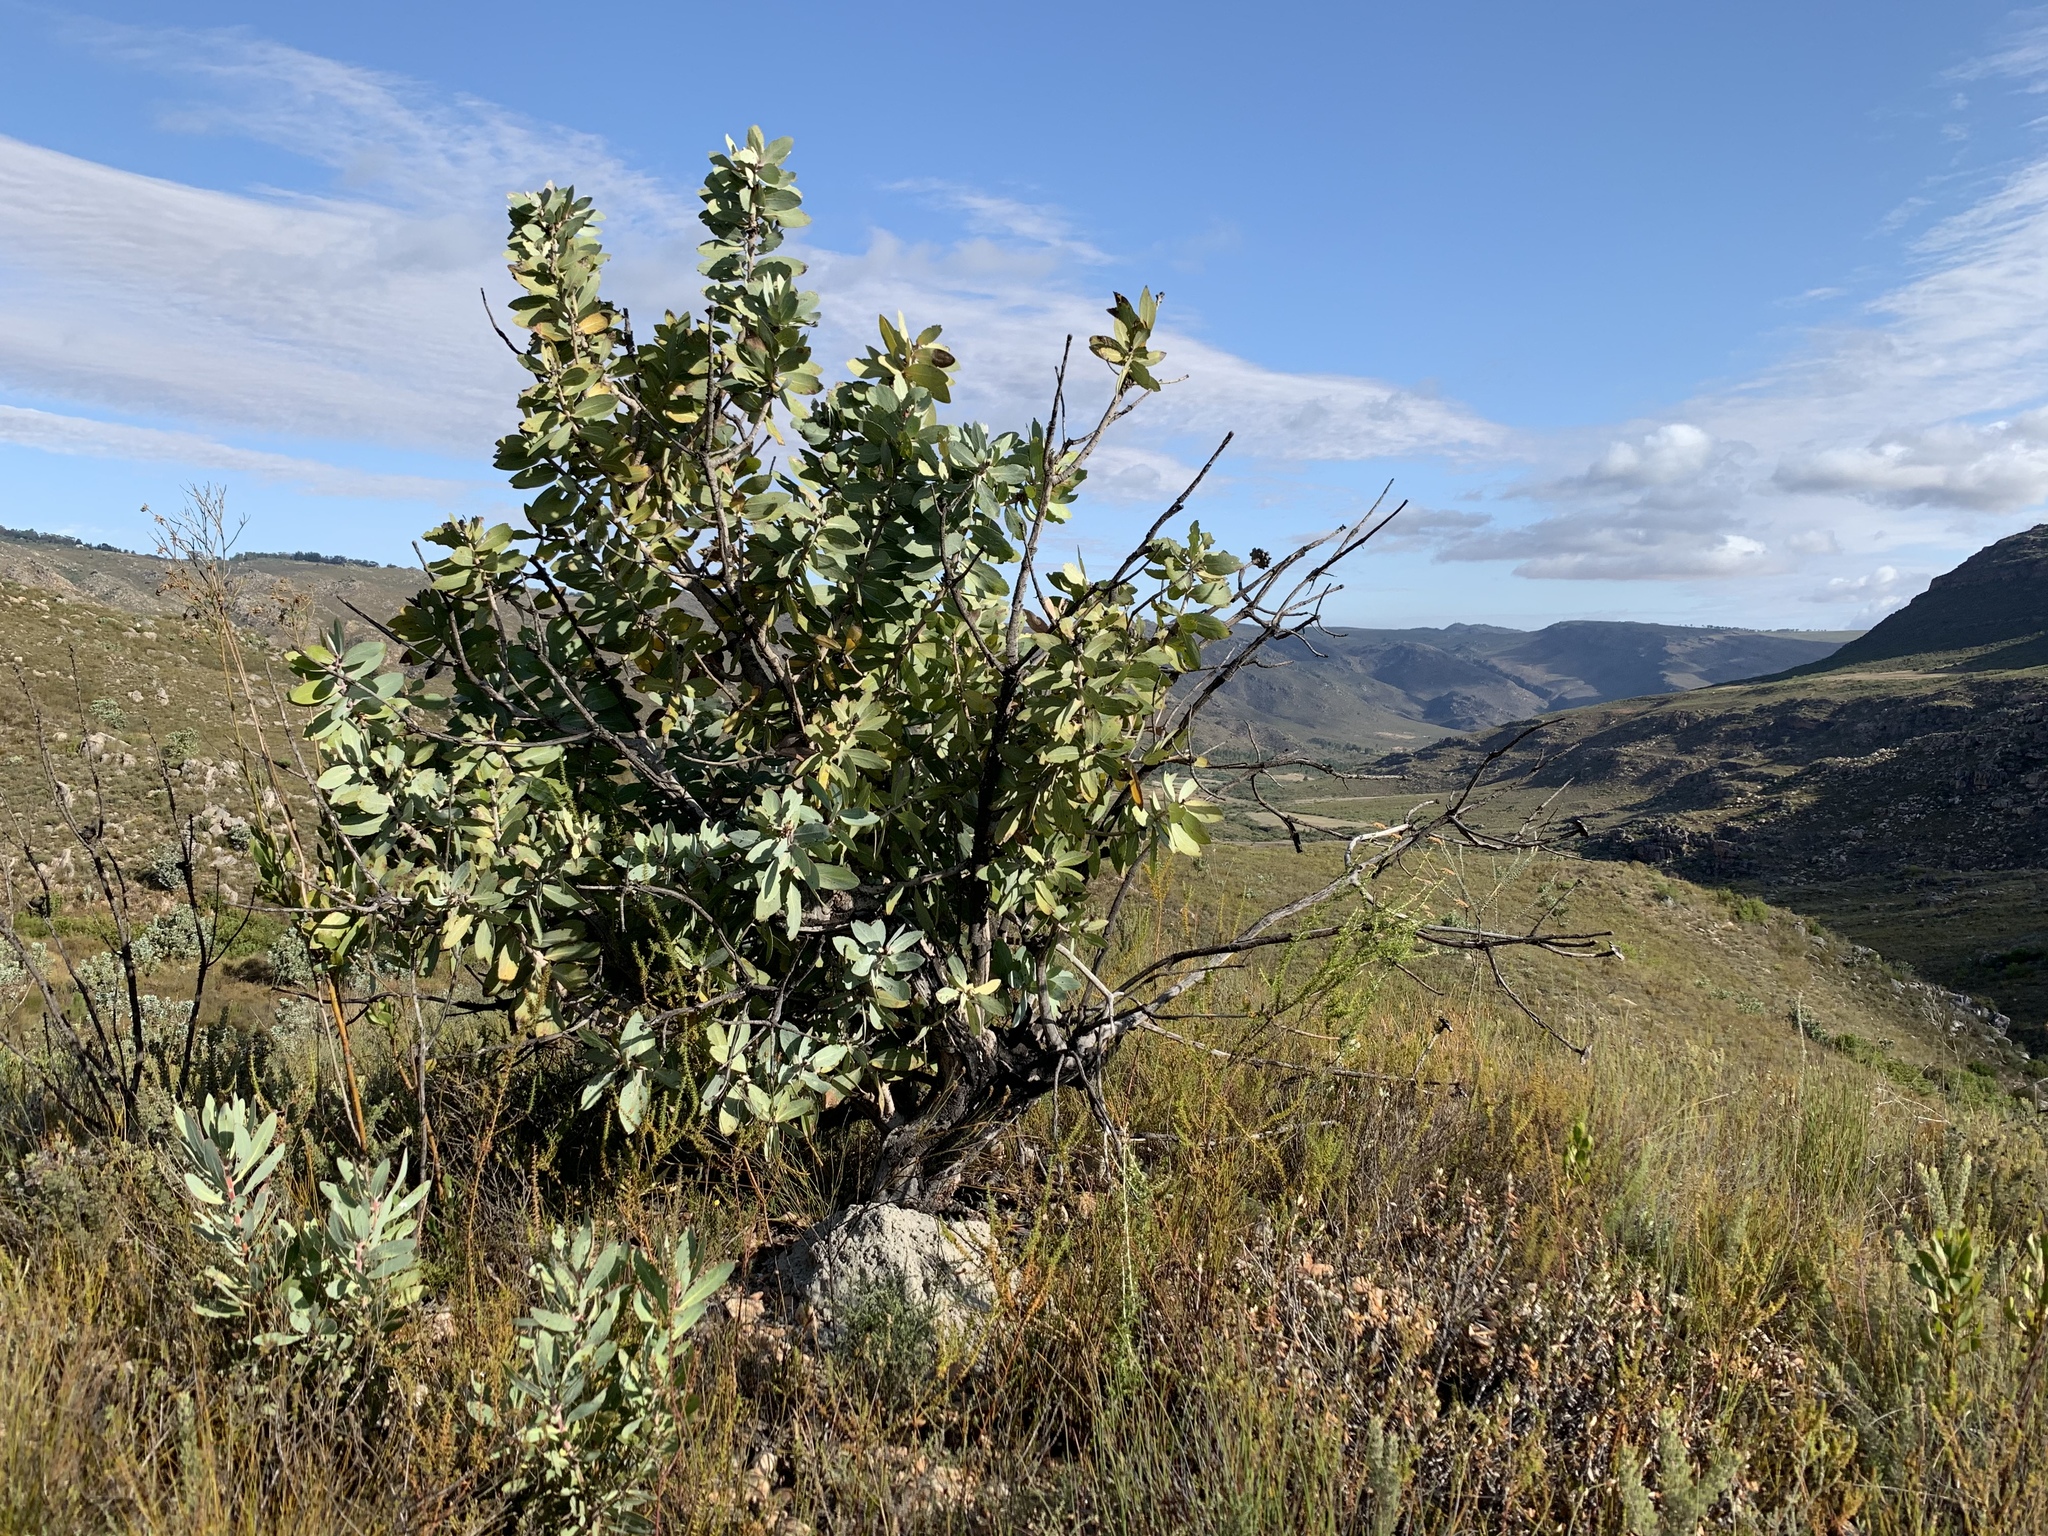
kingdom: Plantae
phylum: Tracheophyta
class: Magnoliopsida
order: Proteales
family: Proteaceae
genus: Protea
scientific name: Protea nitida
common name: Tree protea
